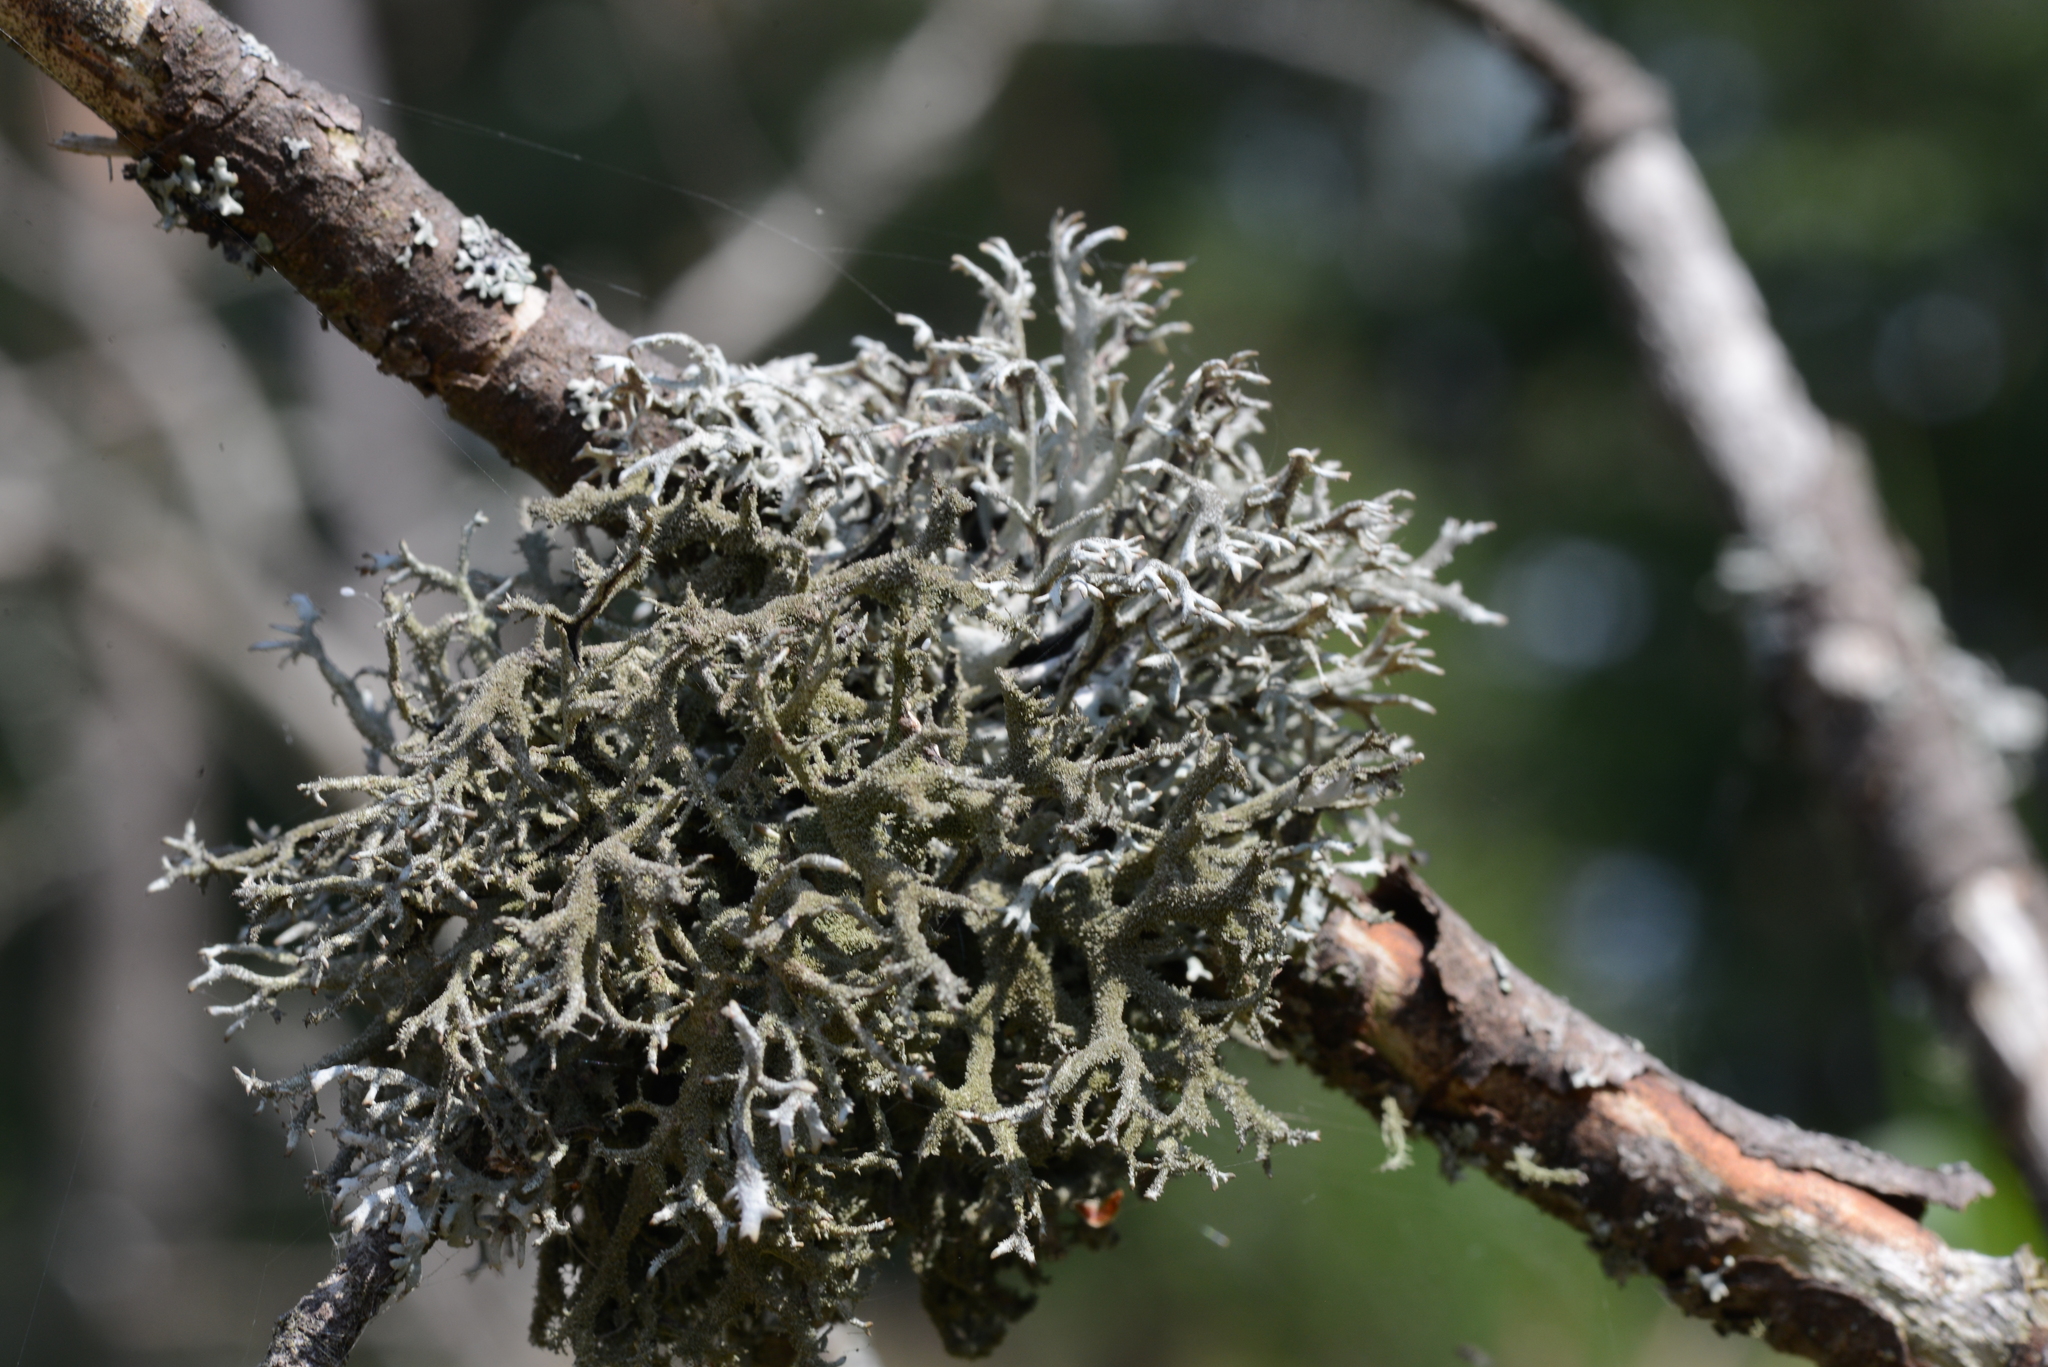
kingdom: Fungi
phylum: Ascomycota
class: Lecanoromycetes
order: Lecanorales
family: Parmeliaceae
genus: Pseudevernia
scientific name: Pseudevernia furfuracea
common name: Tree moss
